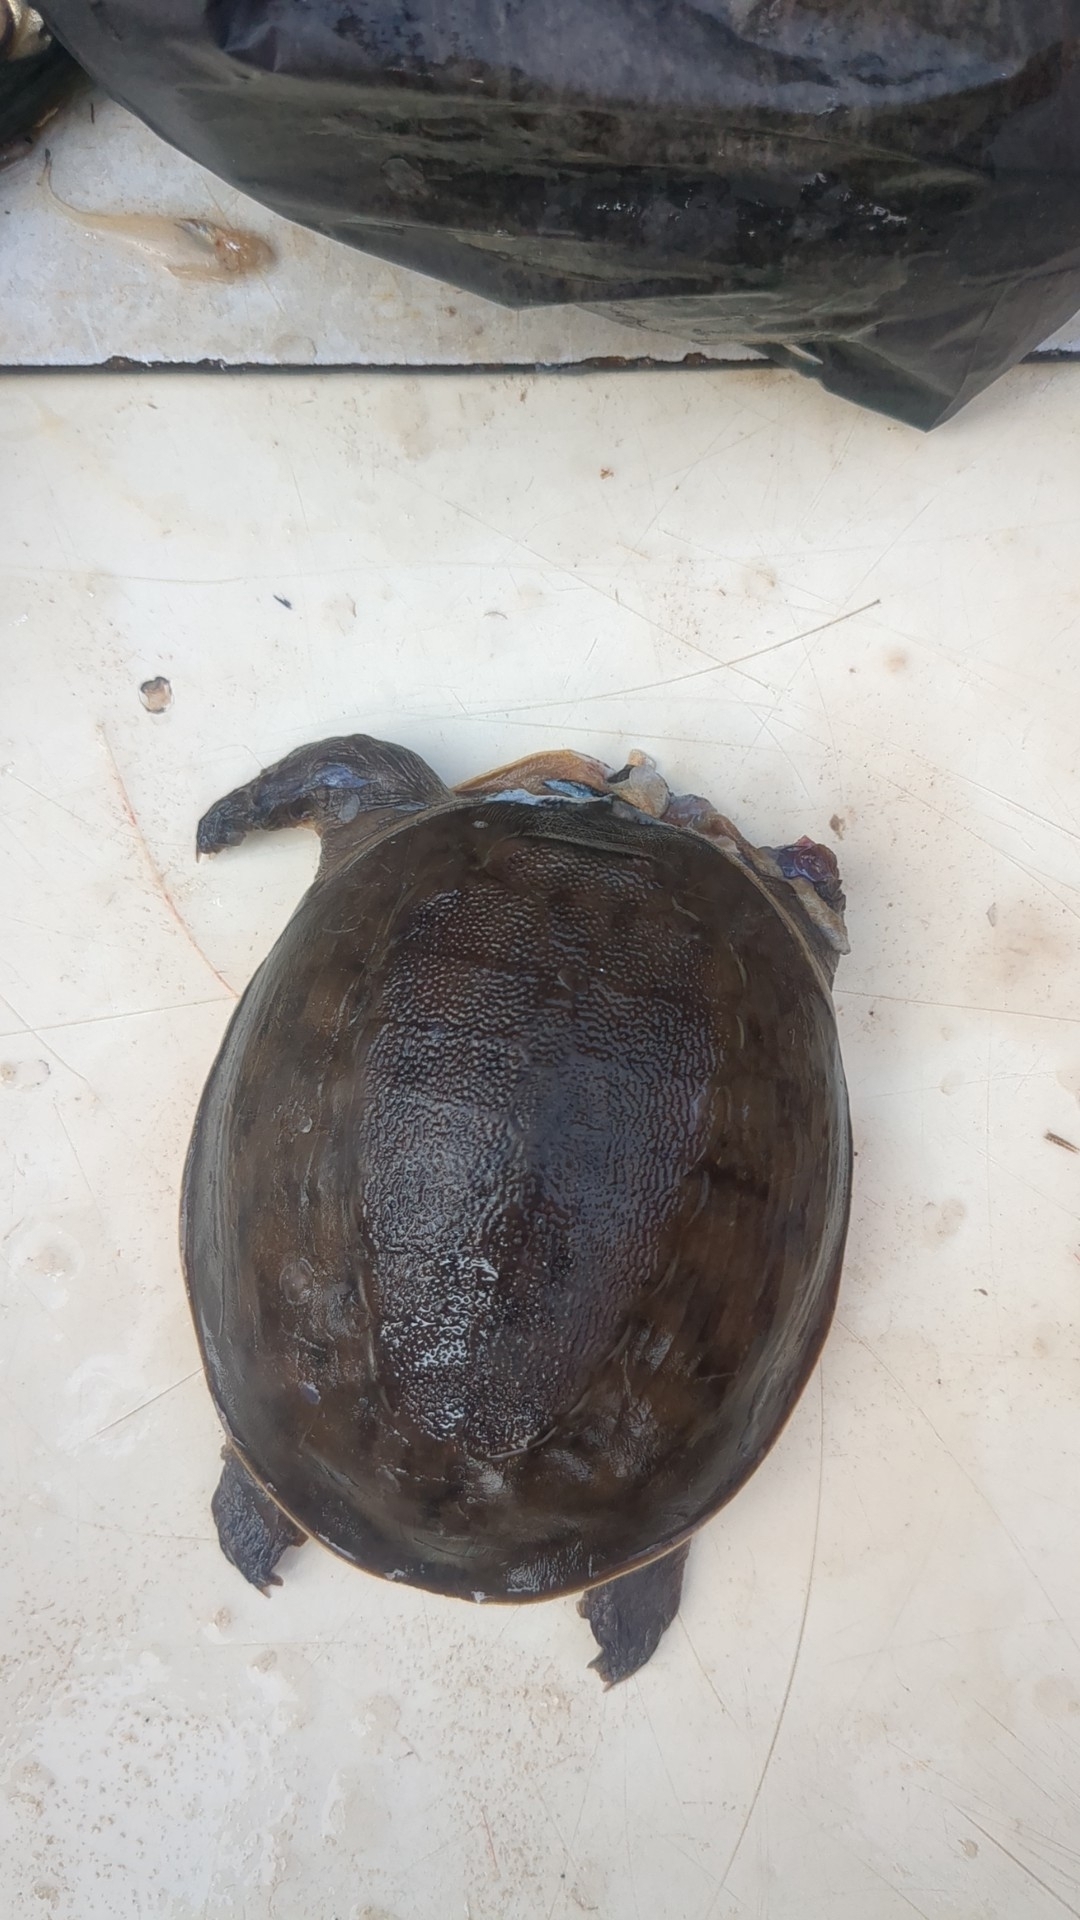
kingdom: Animalia
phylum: Chordata
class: Testudines
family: Trionychidae
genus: Lissemys
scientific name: Lissemys punctata
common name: Indian flap-shelled turtle
